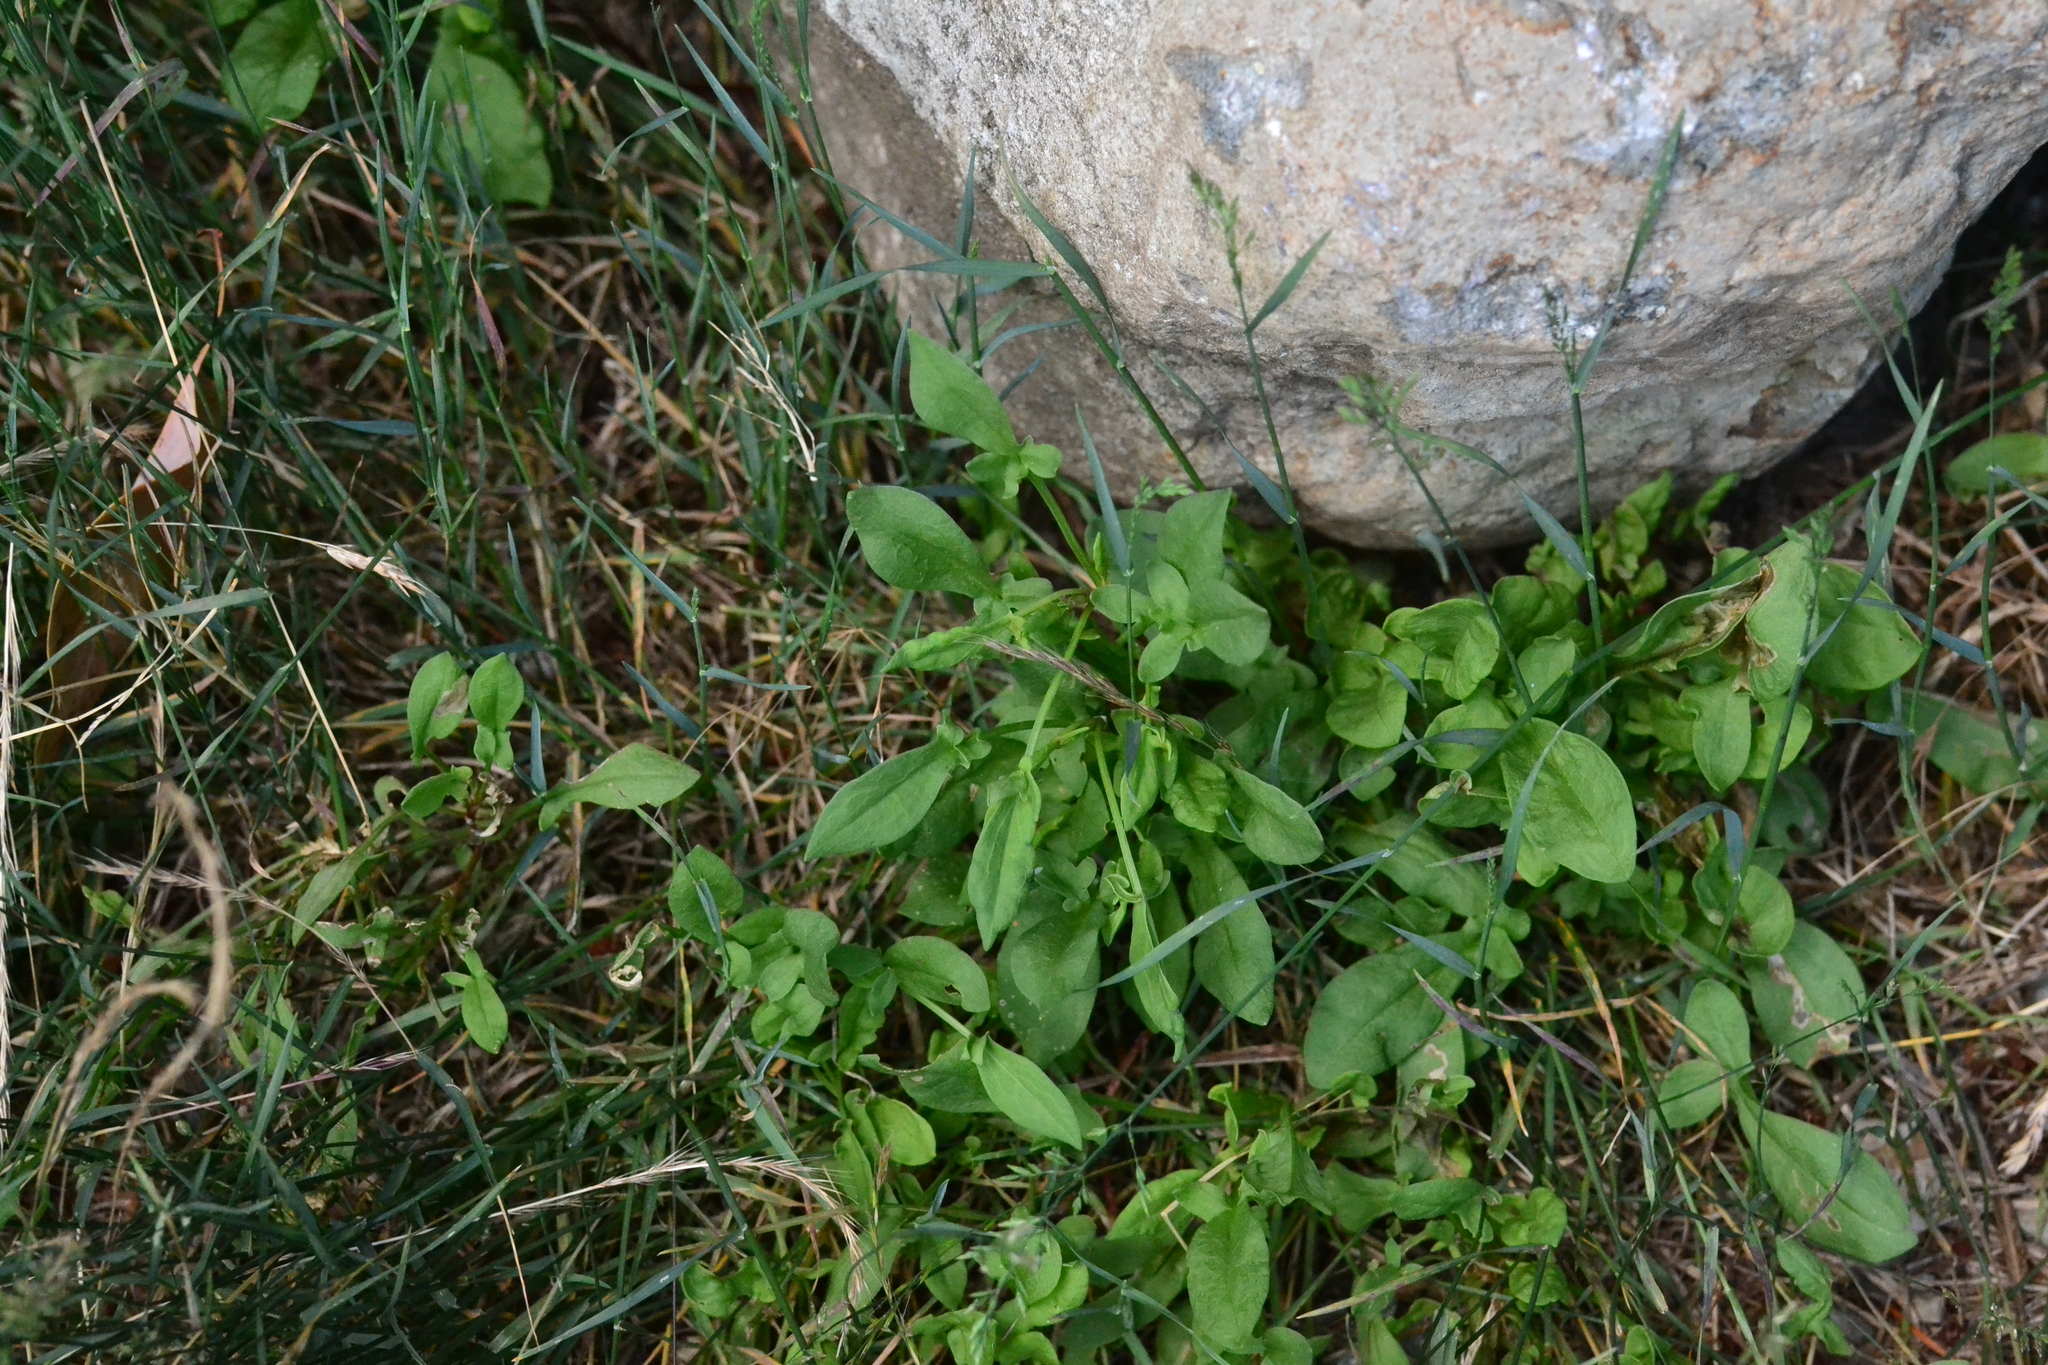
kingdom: Plantae
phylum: Tracheophyta
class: Magnoliopsida
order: Caryophyllales
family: Polygonaceae
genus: Rumex
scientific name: Rumex acetosella
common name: Common sheep sorrel
